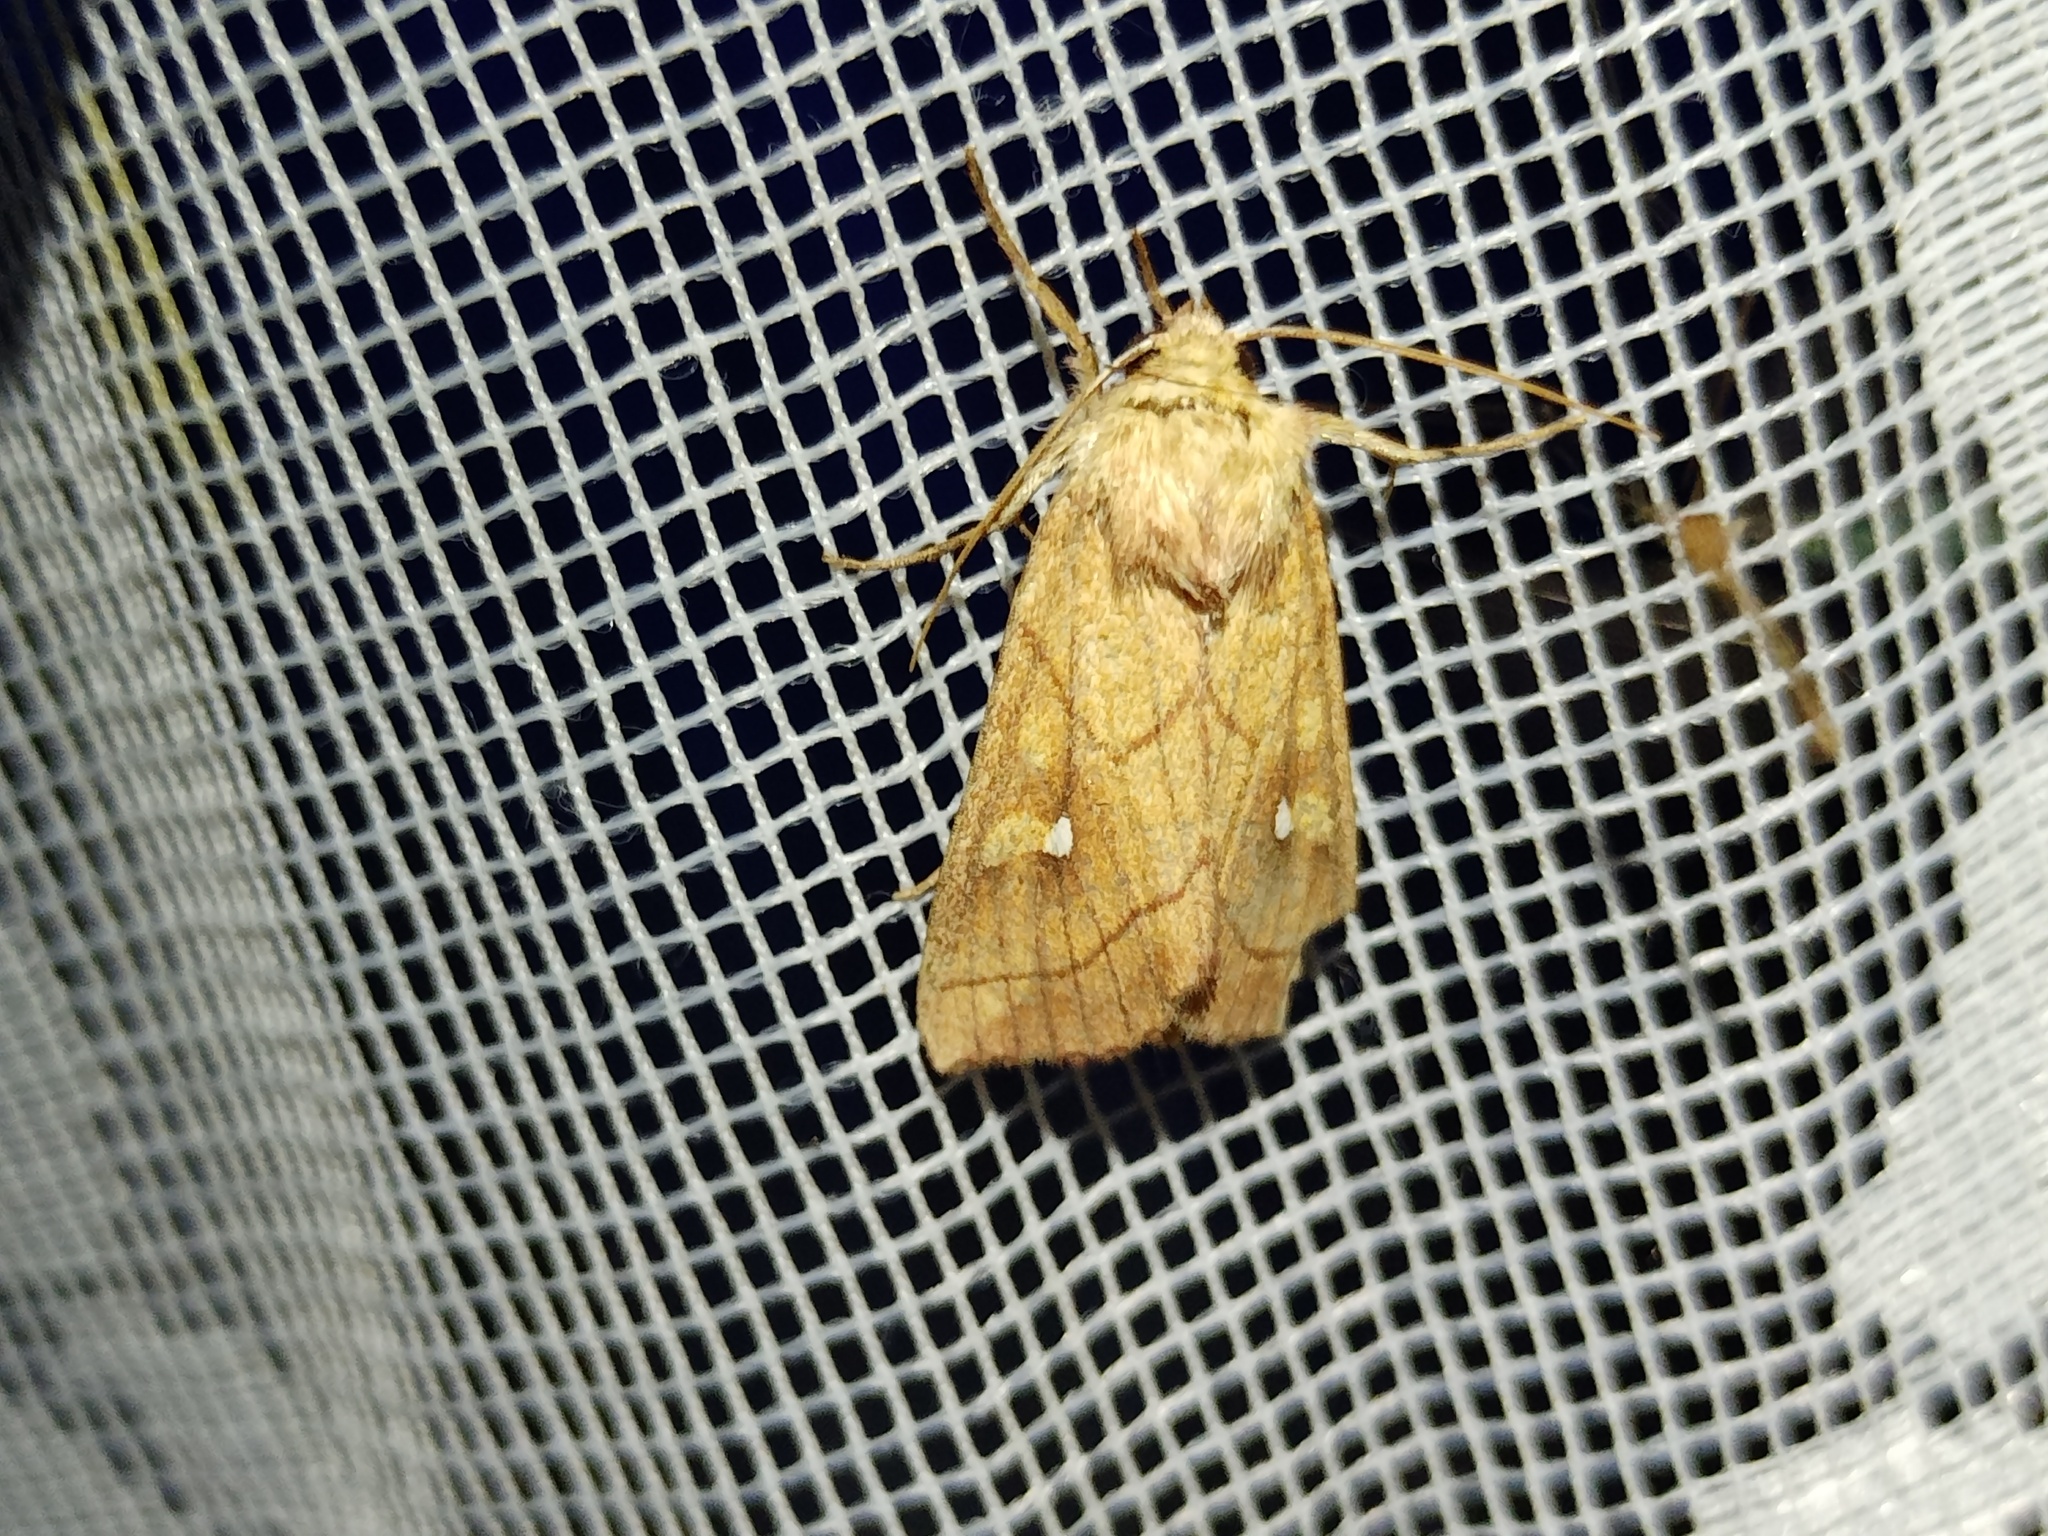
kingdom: Animalia
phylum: Arthropoda
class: Insecta
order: Lepidoptera
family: Noctuidae
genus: Mythimna
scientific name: Mythimna conigera
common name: Brown-line bright-eye
